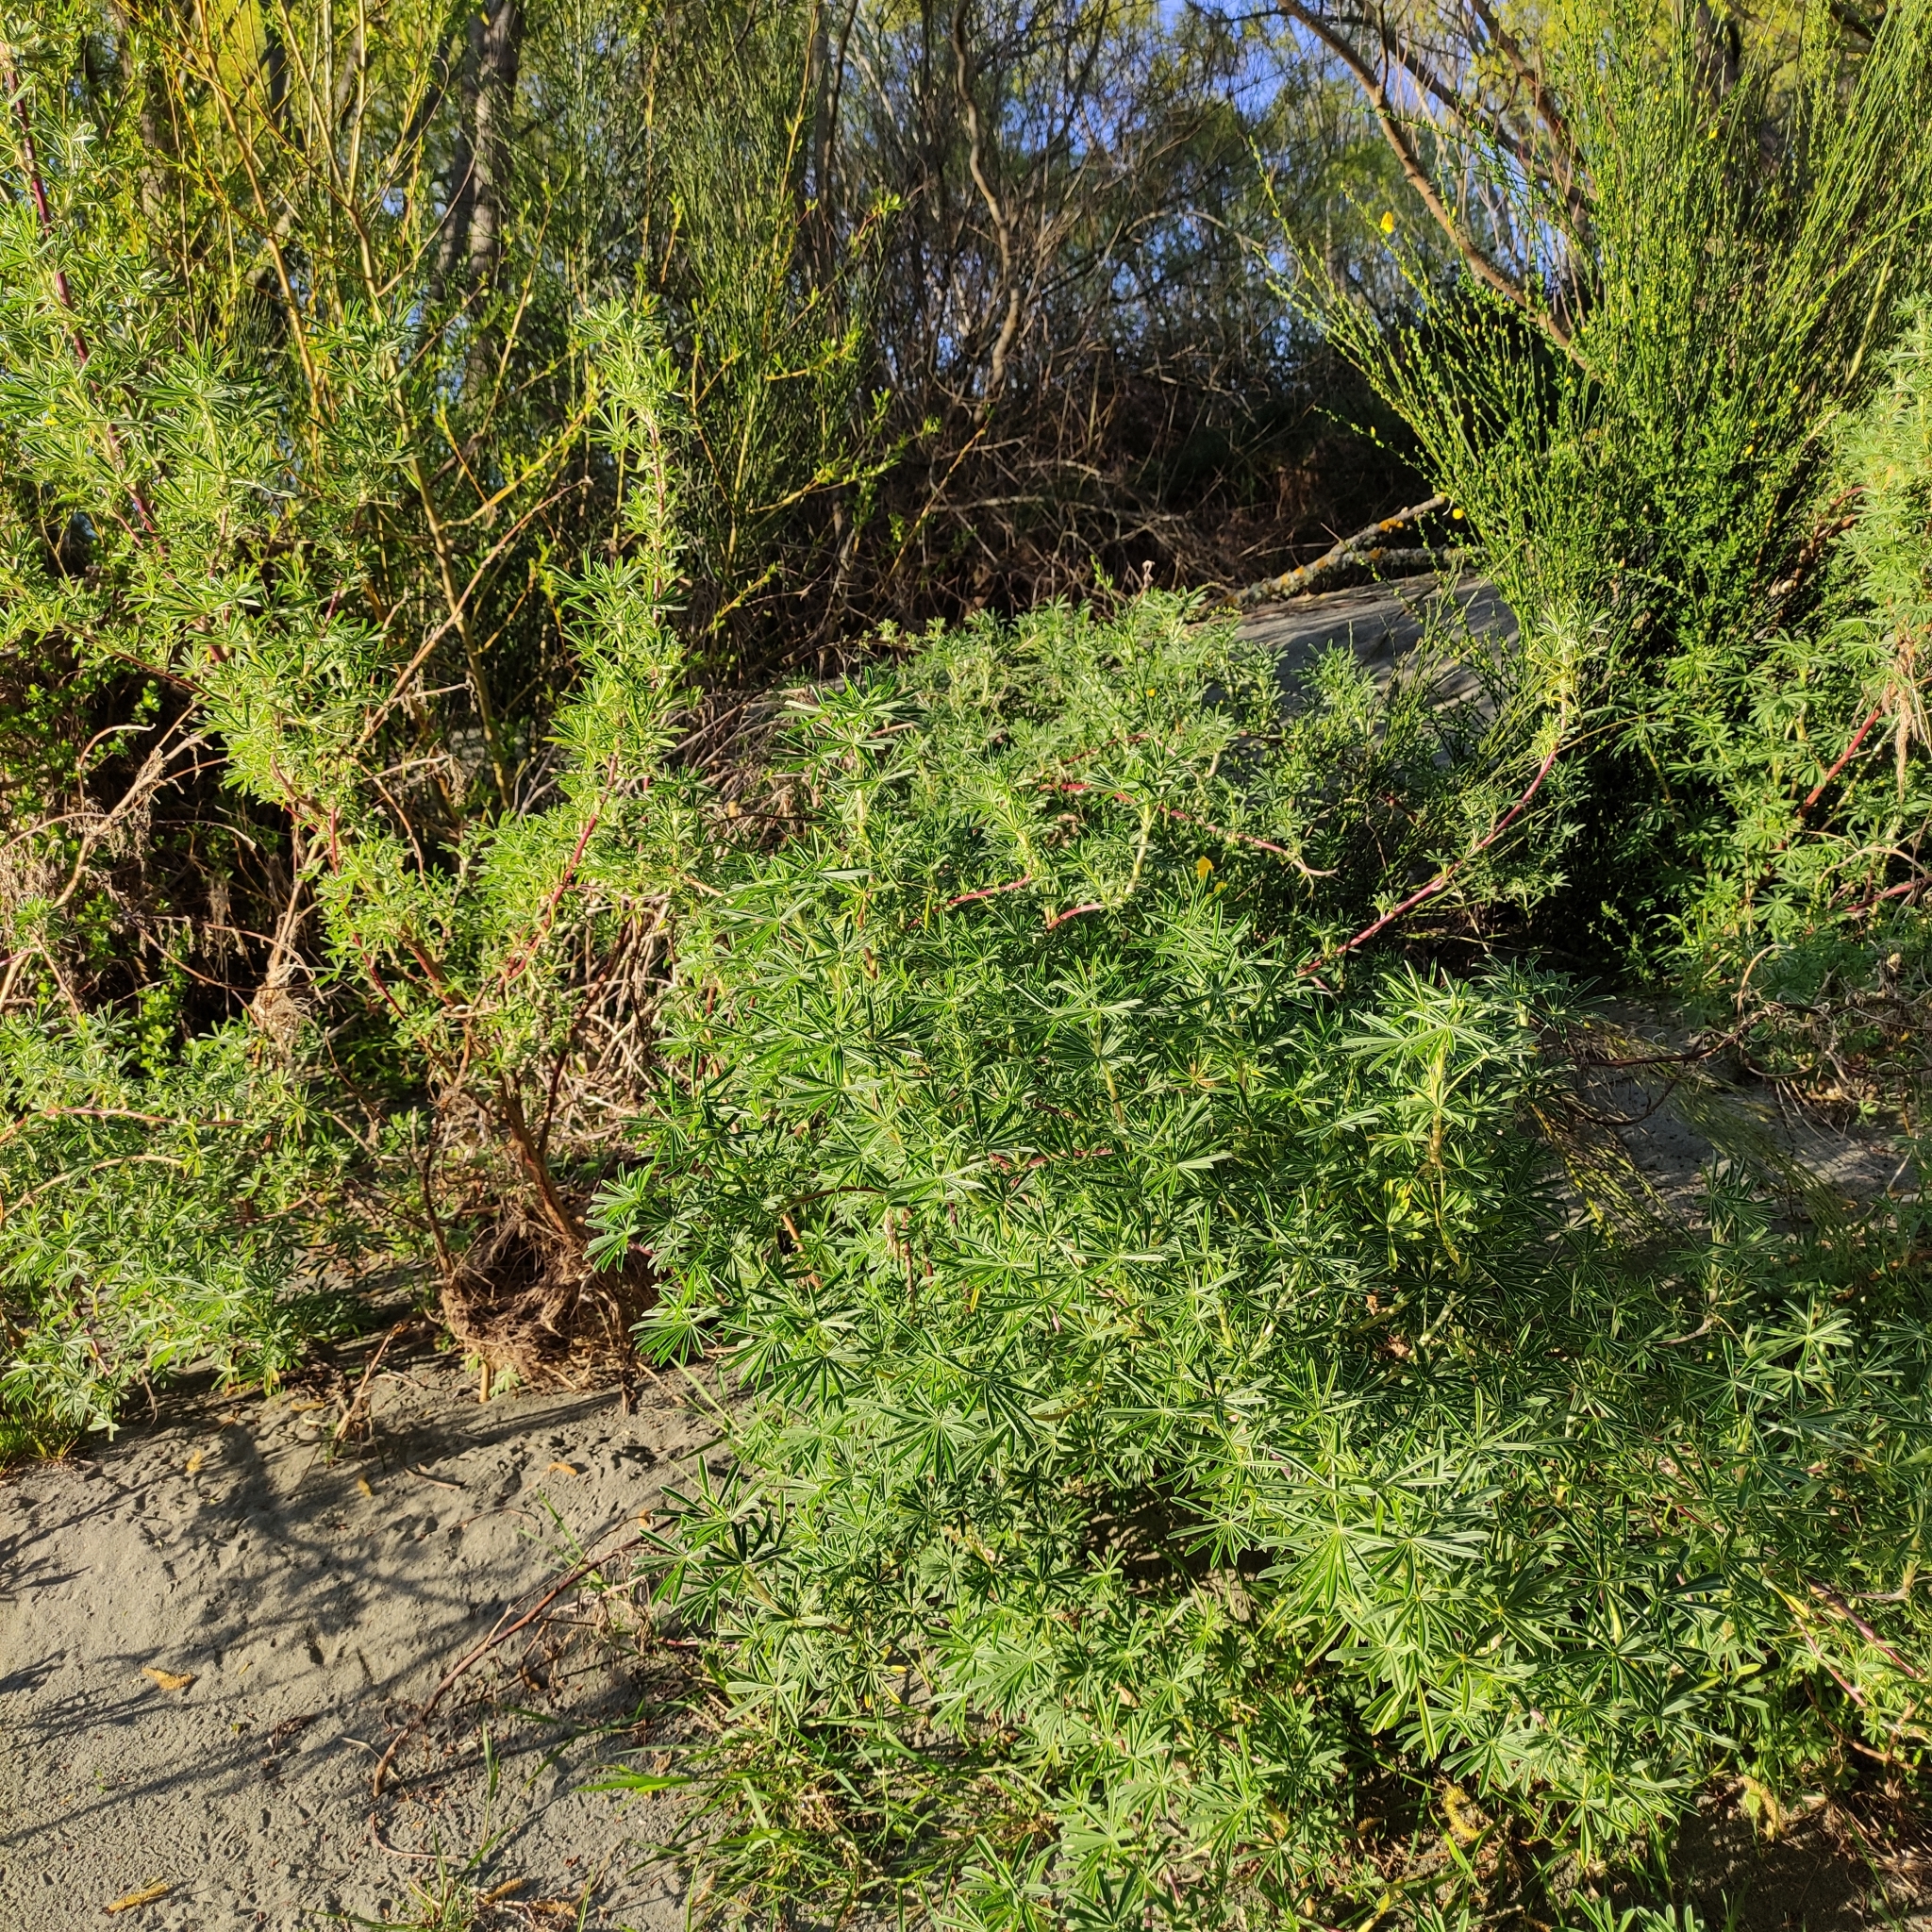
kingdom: Plantae
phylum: Tracheophyta
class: Magnoliopsida
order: Fabales
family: Fabaceae
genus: Lupinus
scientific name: Lupinus arboreus
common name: Yellow bush lupine
